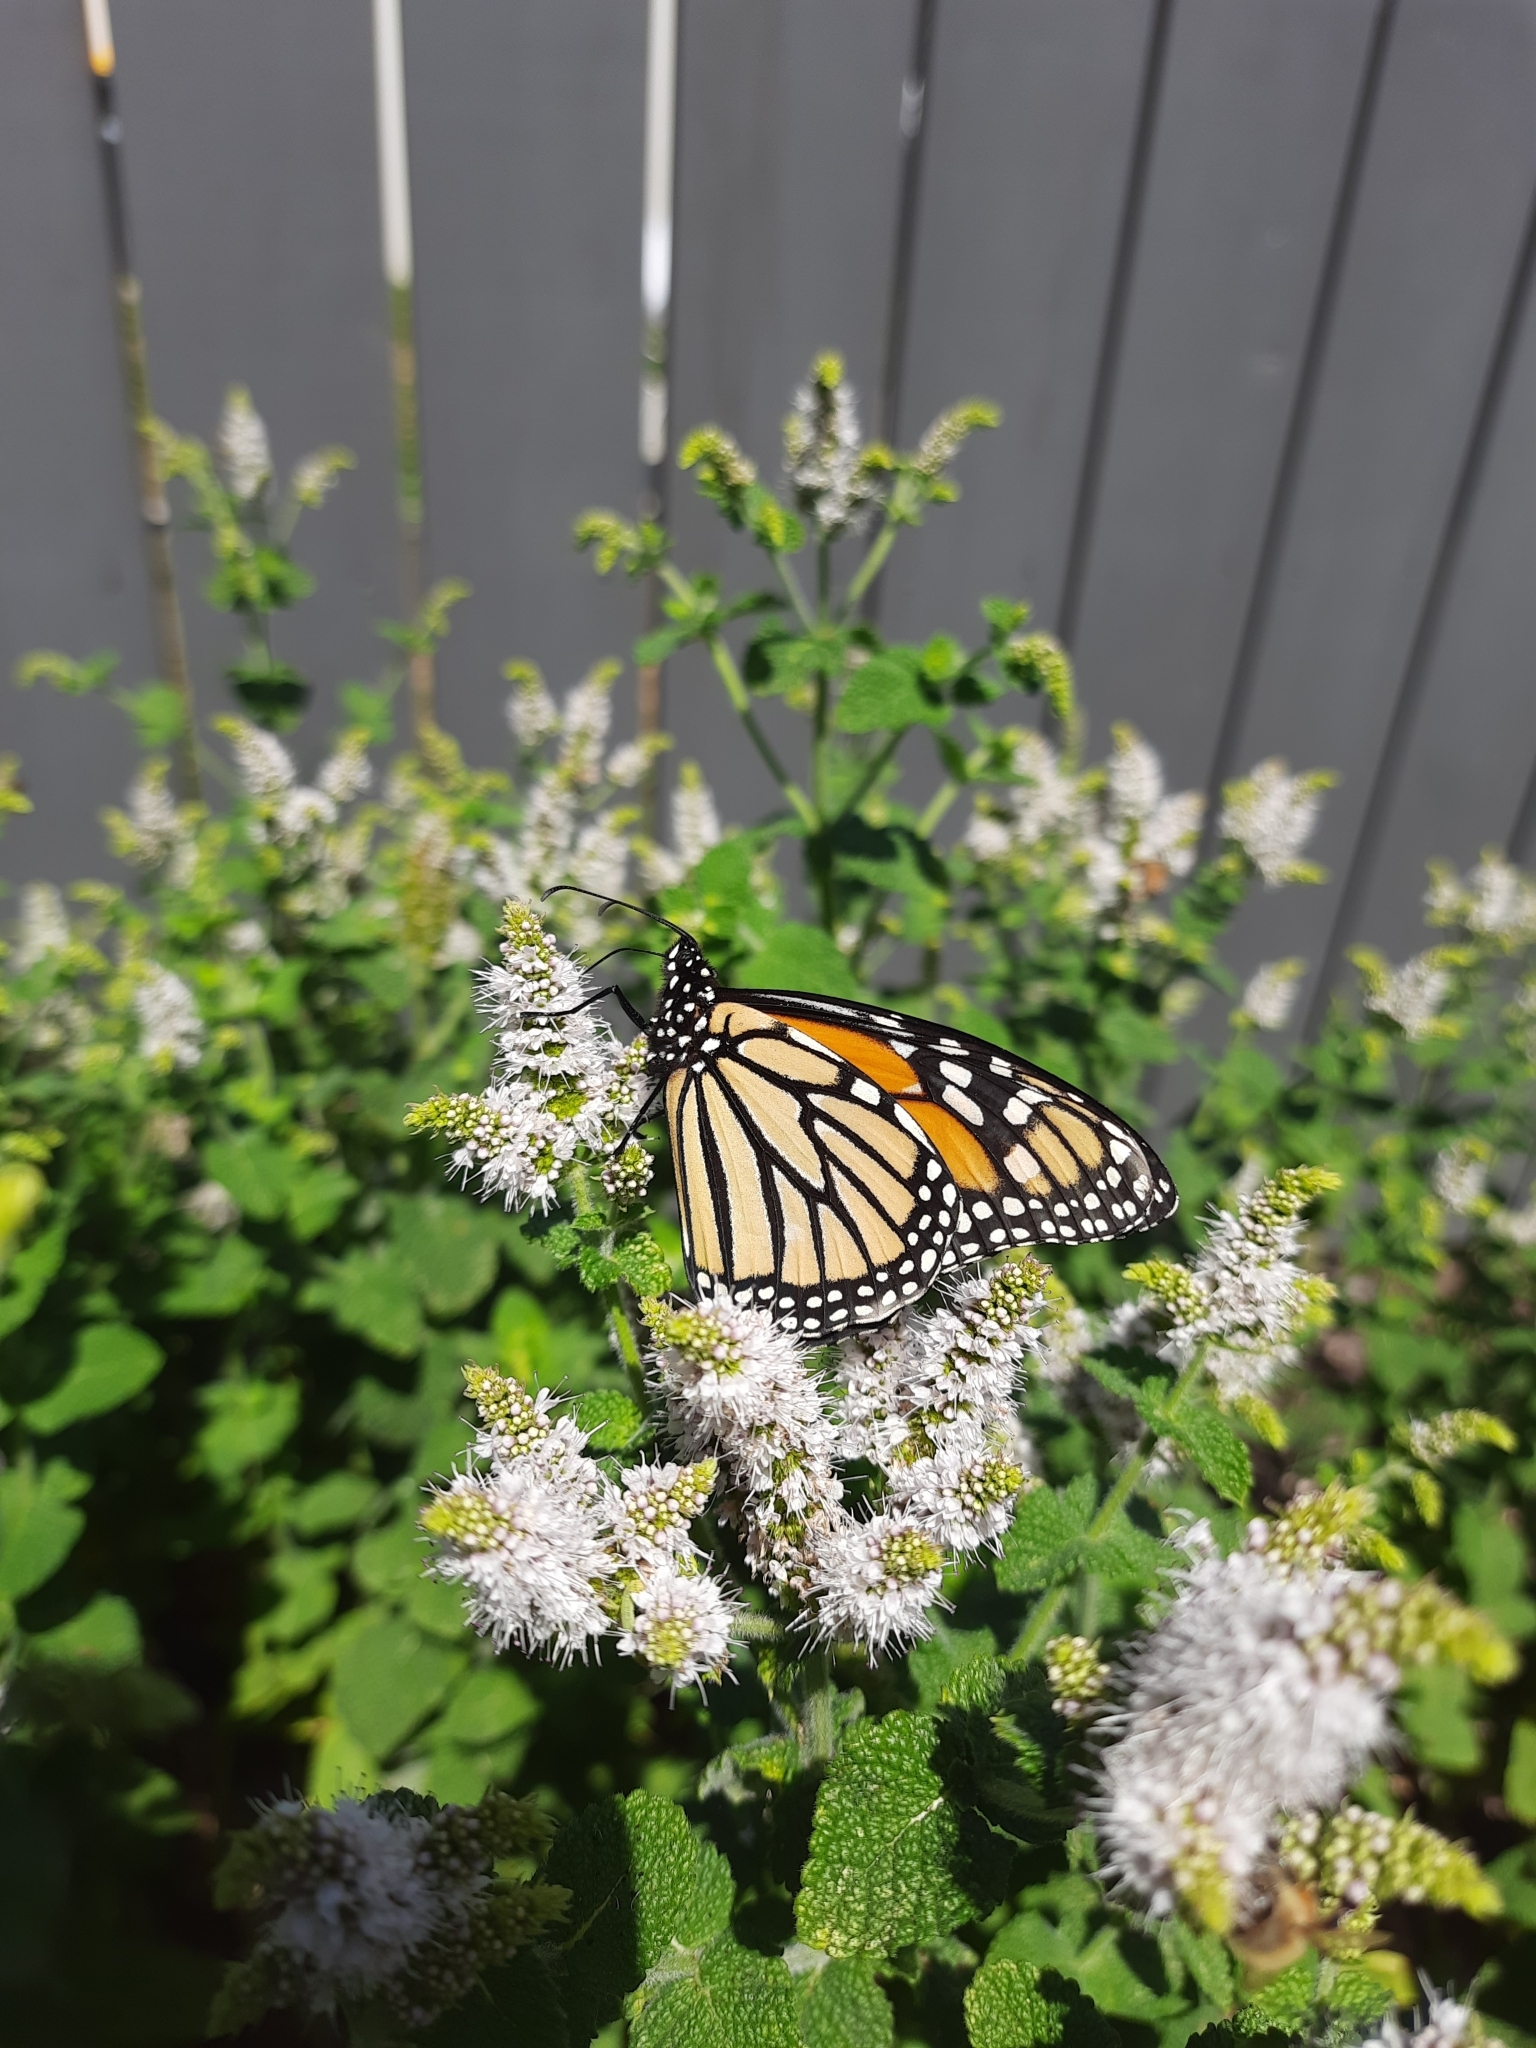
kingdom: Animalia
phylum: Arthropoda
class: Insecta
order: Lepidoptera
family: Nymphalidae
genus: Danaus
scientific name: Danaus plexippus
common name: Monarch
